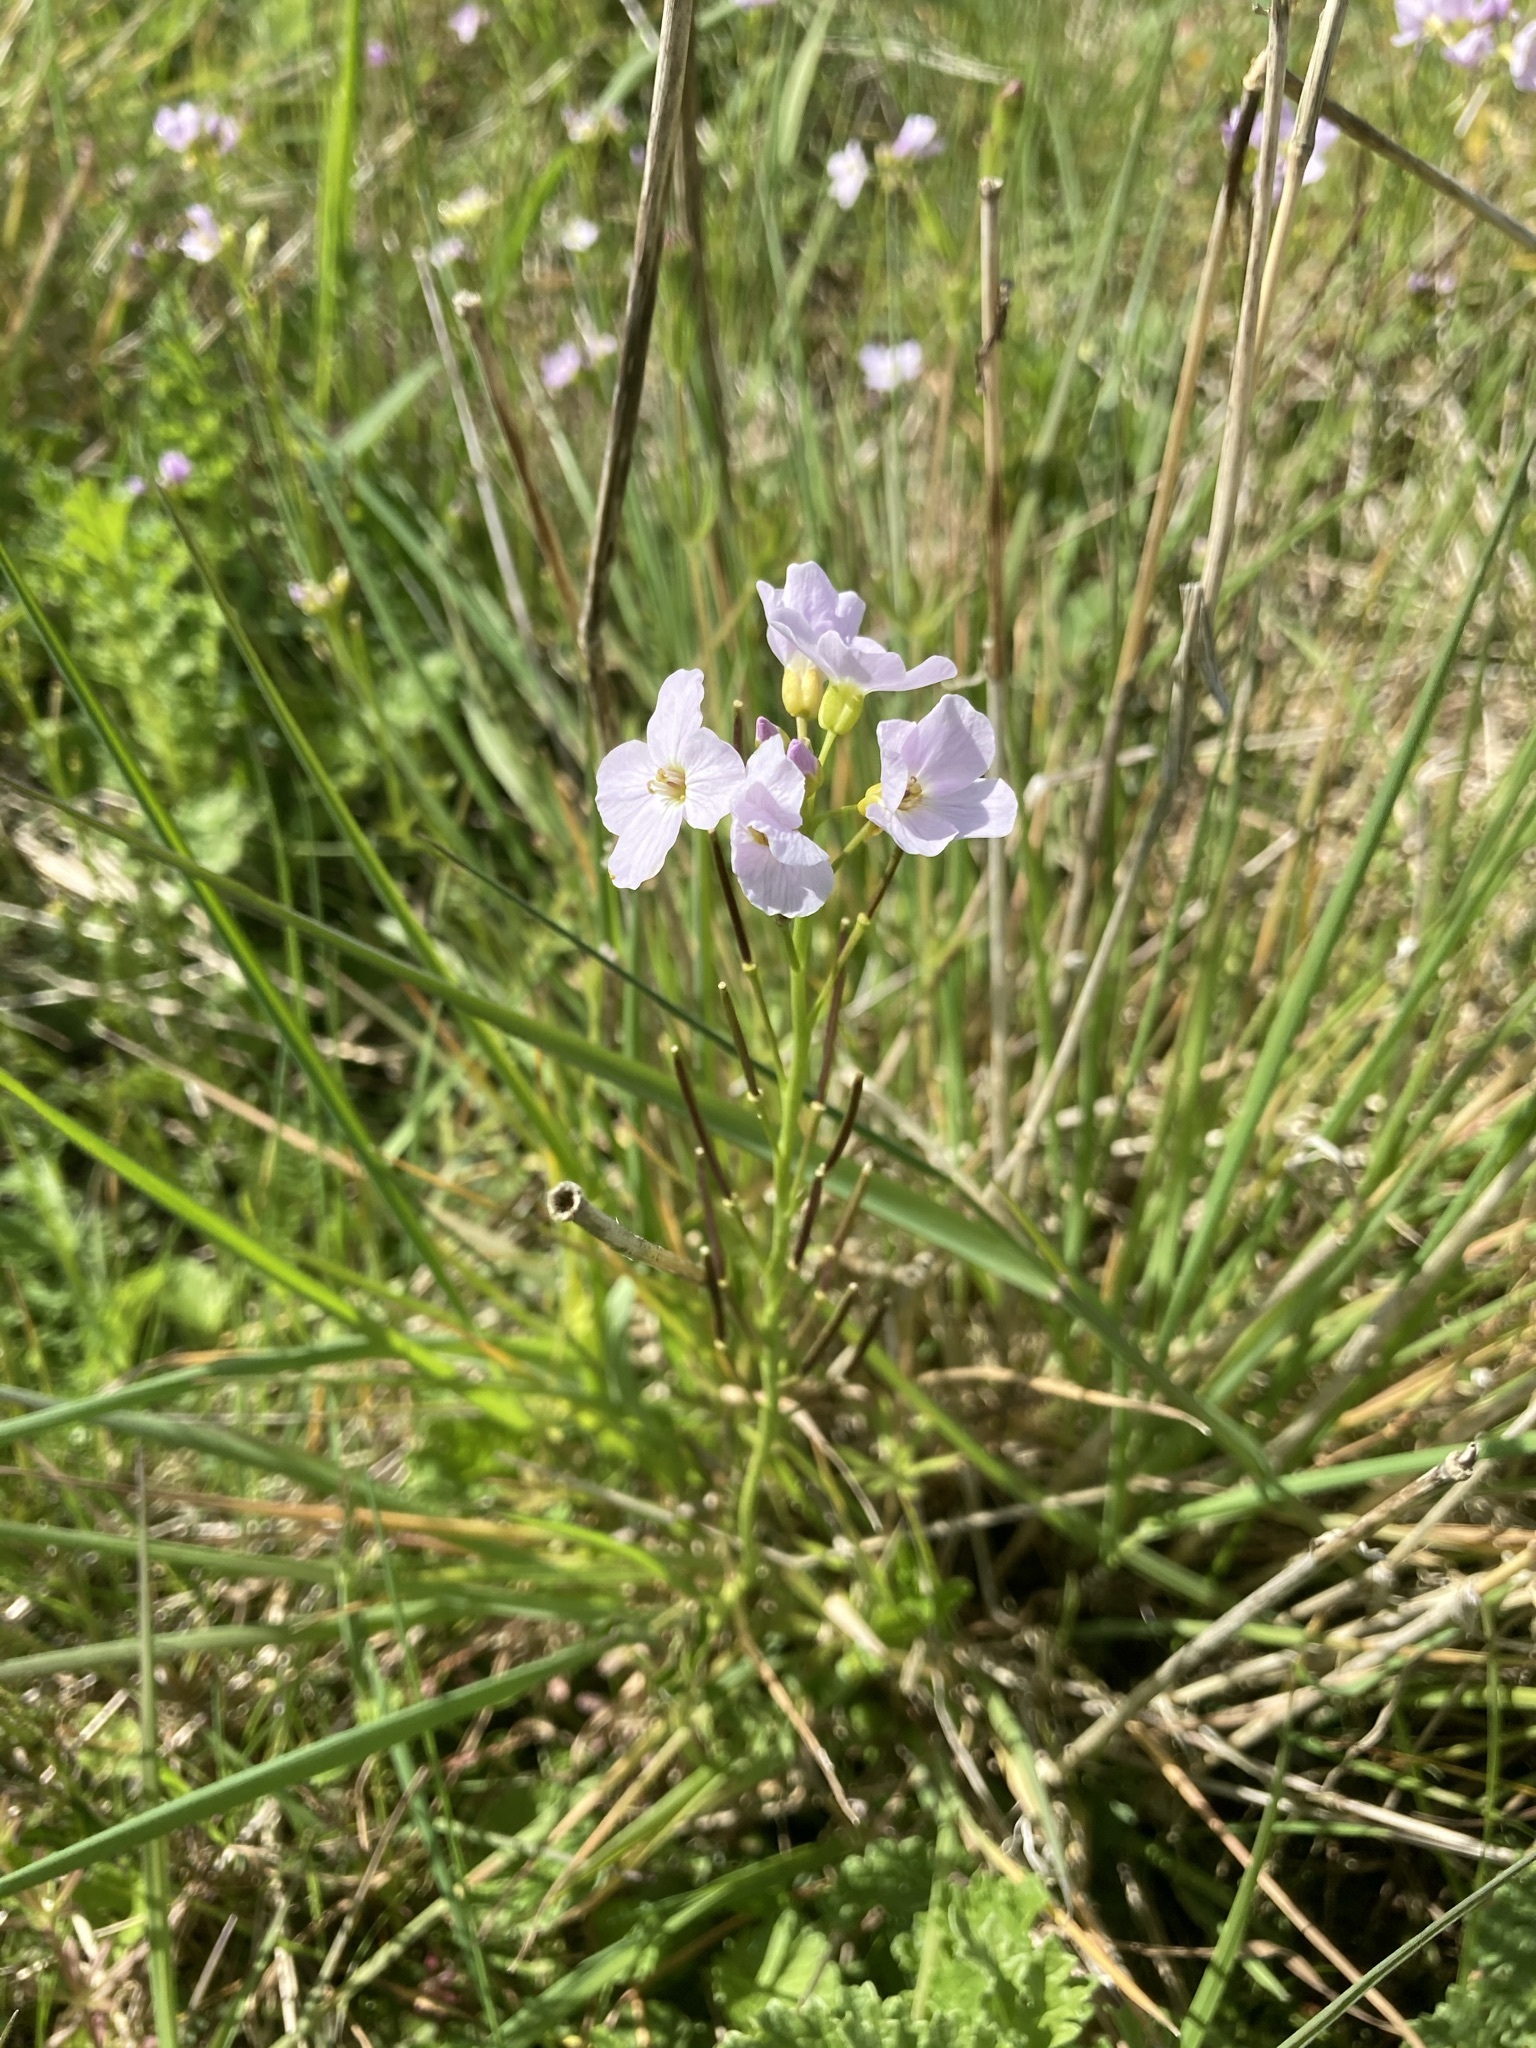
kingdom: Plantae
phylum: Tracheophyta
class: Magnoliopsida
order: Brassicales
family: Brassicaceae
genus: Cardamine
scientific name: Cardamine pratensis
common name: Cuckoo flower
